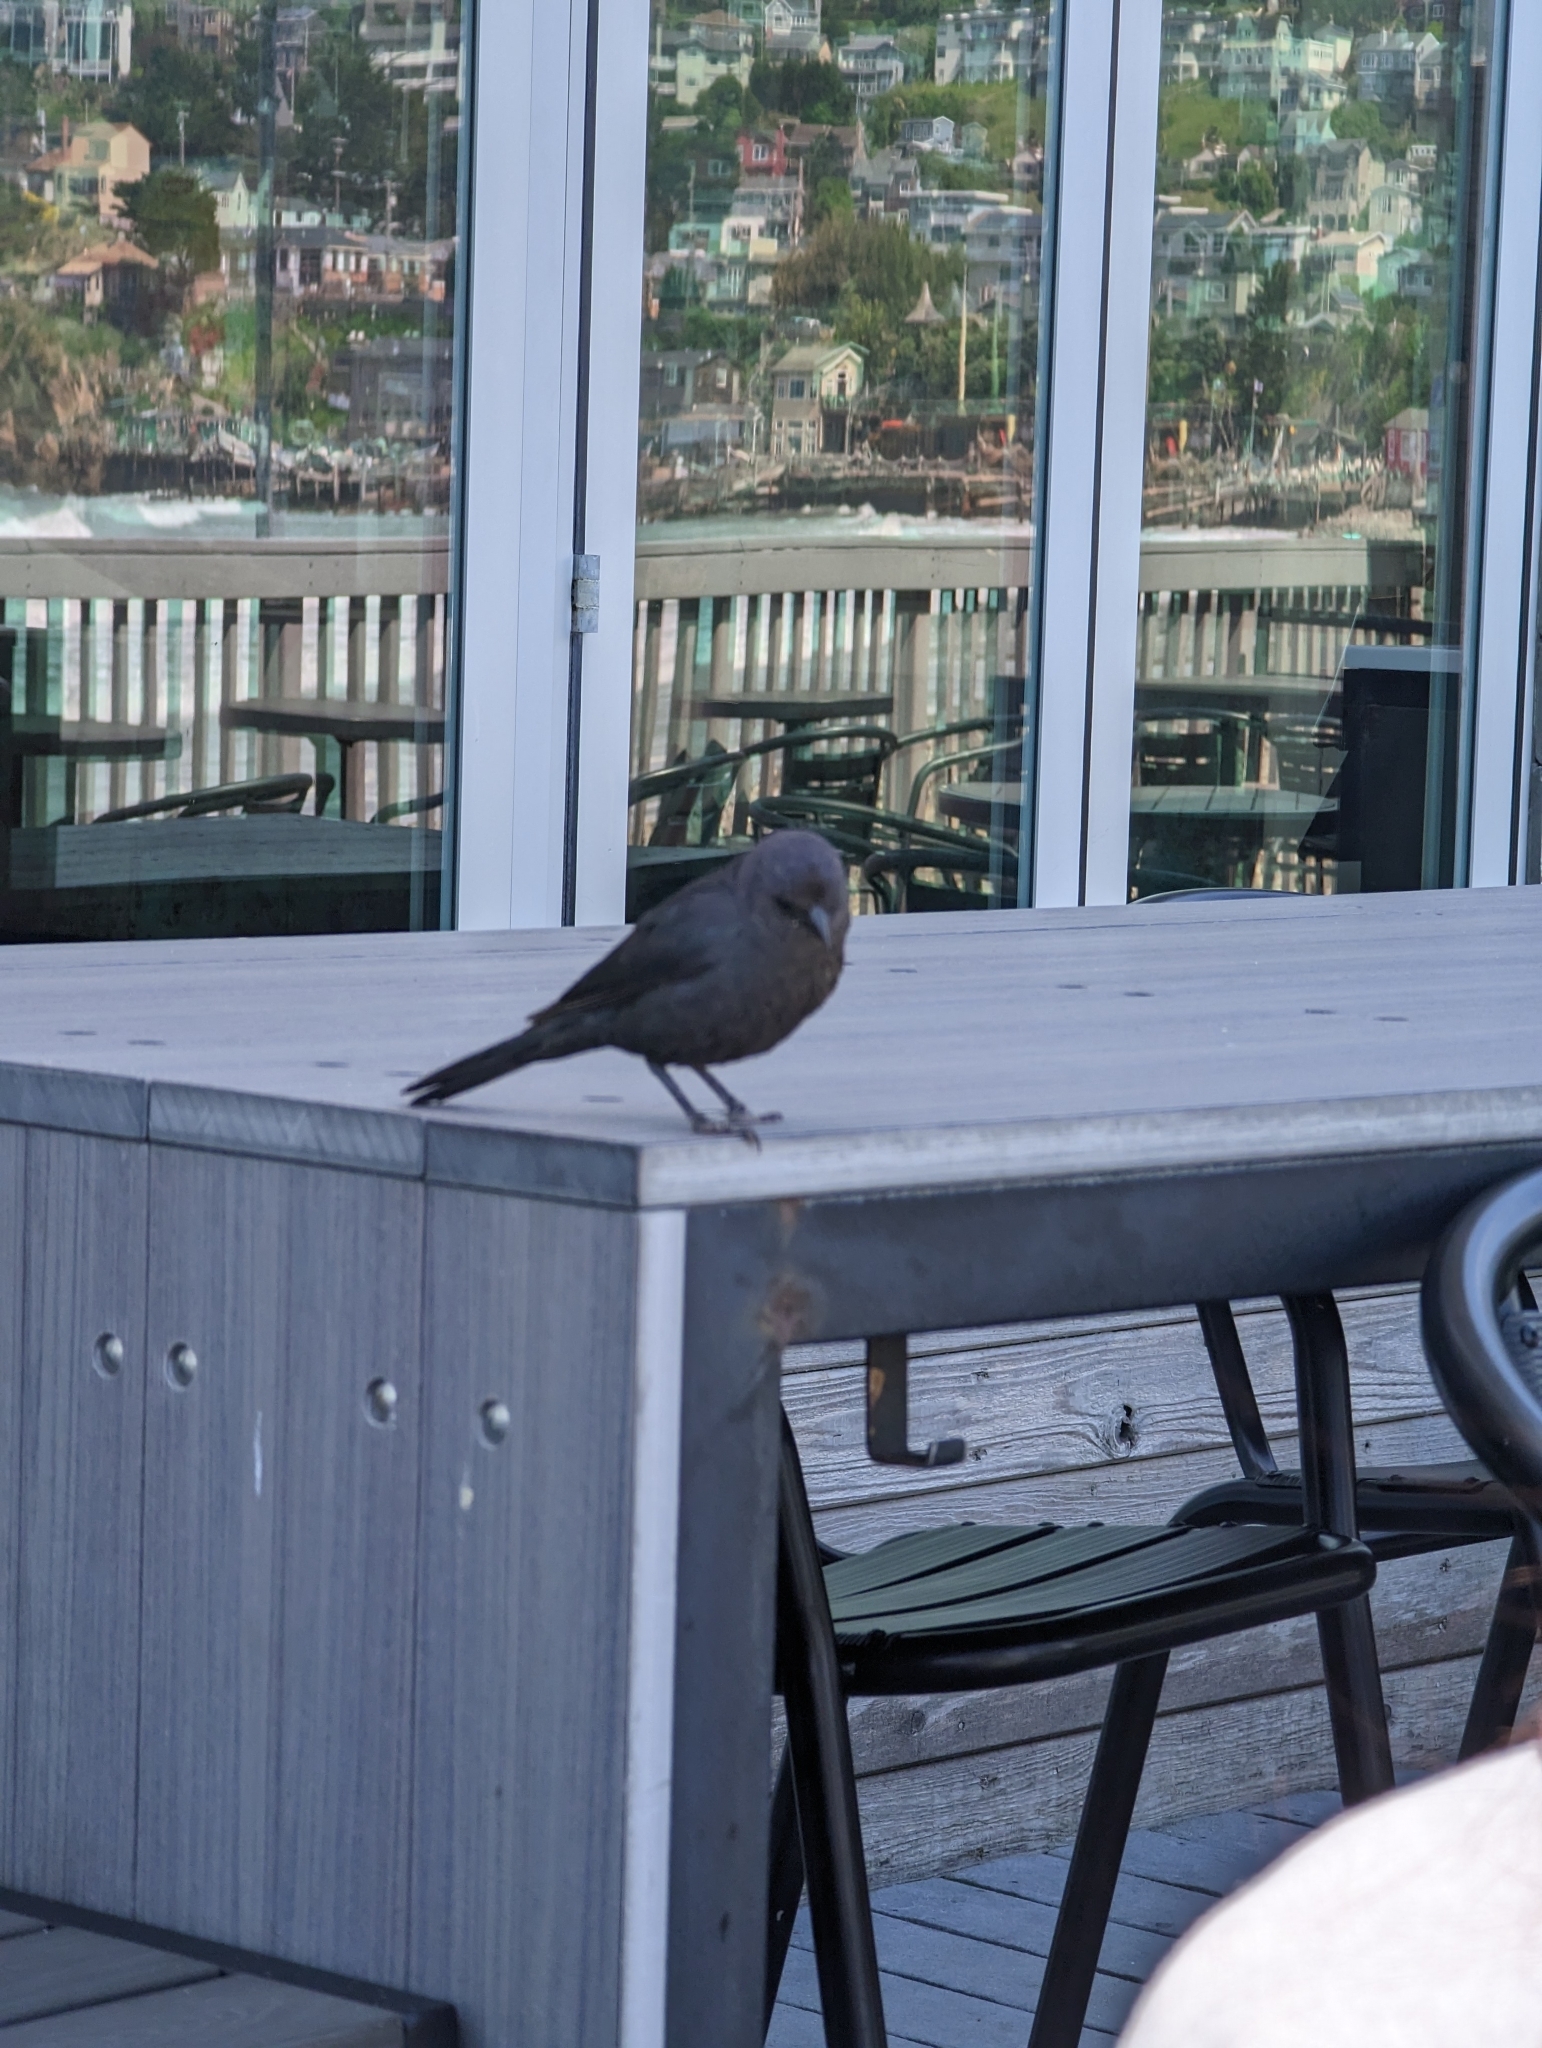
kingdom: Animalia
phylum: Chordata
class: Aves
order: Passeriformes
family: Icteridae
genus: Euphagus
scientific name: Euphagus cyanocephalus
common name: Brewer's blackbird
